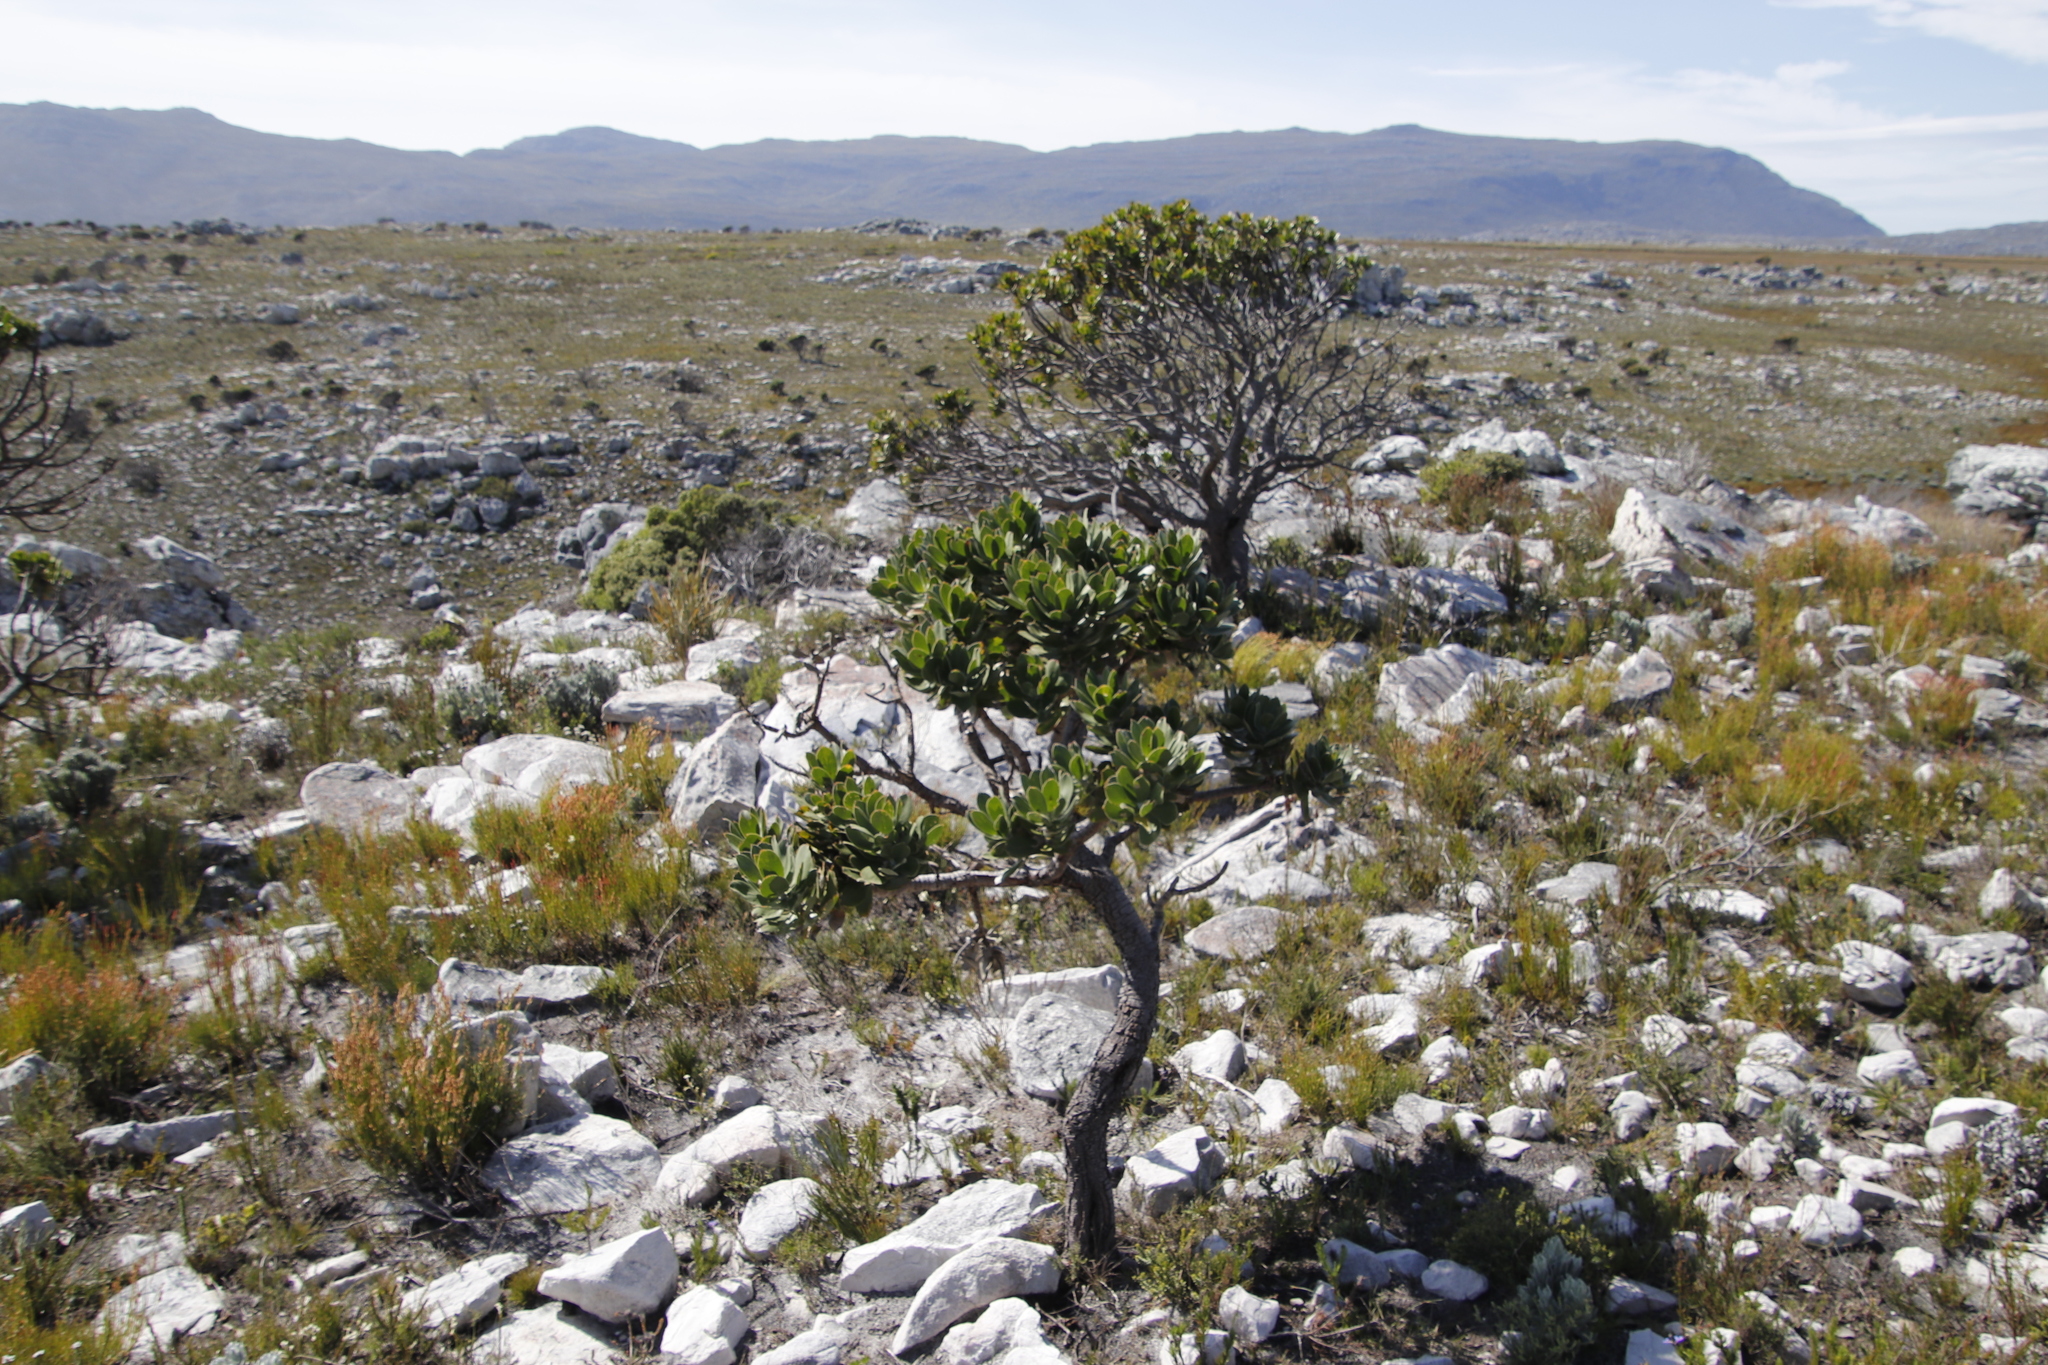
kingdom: Plantae
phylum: Tracheophyta
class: Magnoliopsida
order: Proteales
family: Proteaceae
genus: Leucospermum
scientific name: Leucospermum conocarpodendron
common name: Tree pincushion
